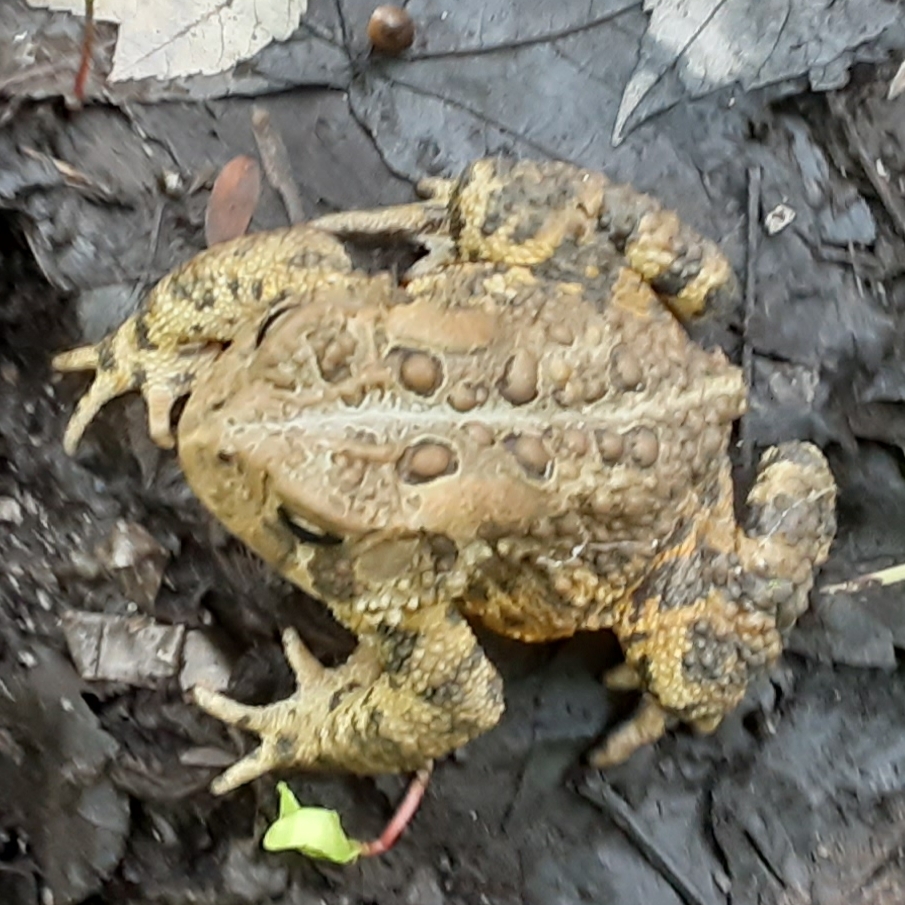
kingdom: Animalia
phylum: Chordata
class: Amphibia
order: Anura
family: Bufonidae
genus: Anaxyrus
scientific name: Anaxyrus americanus
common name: American toad
